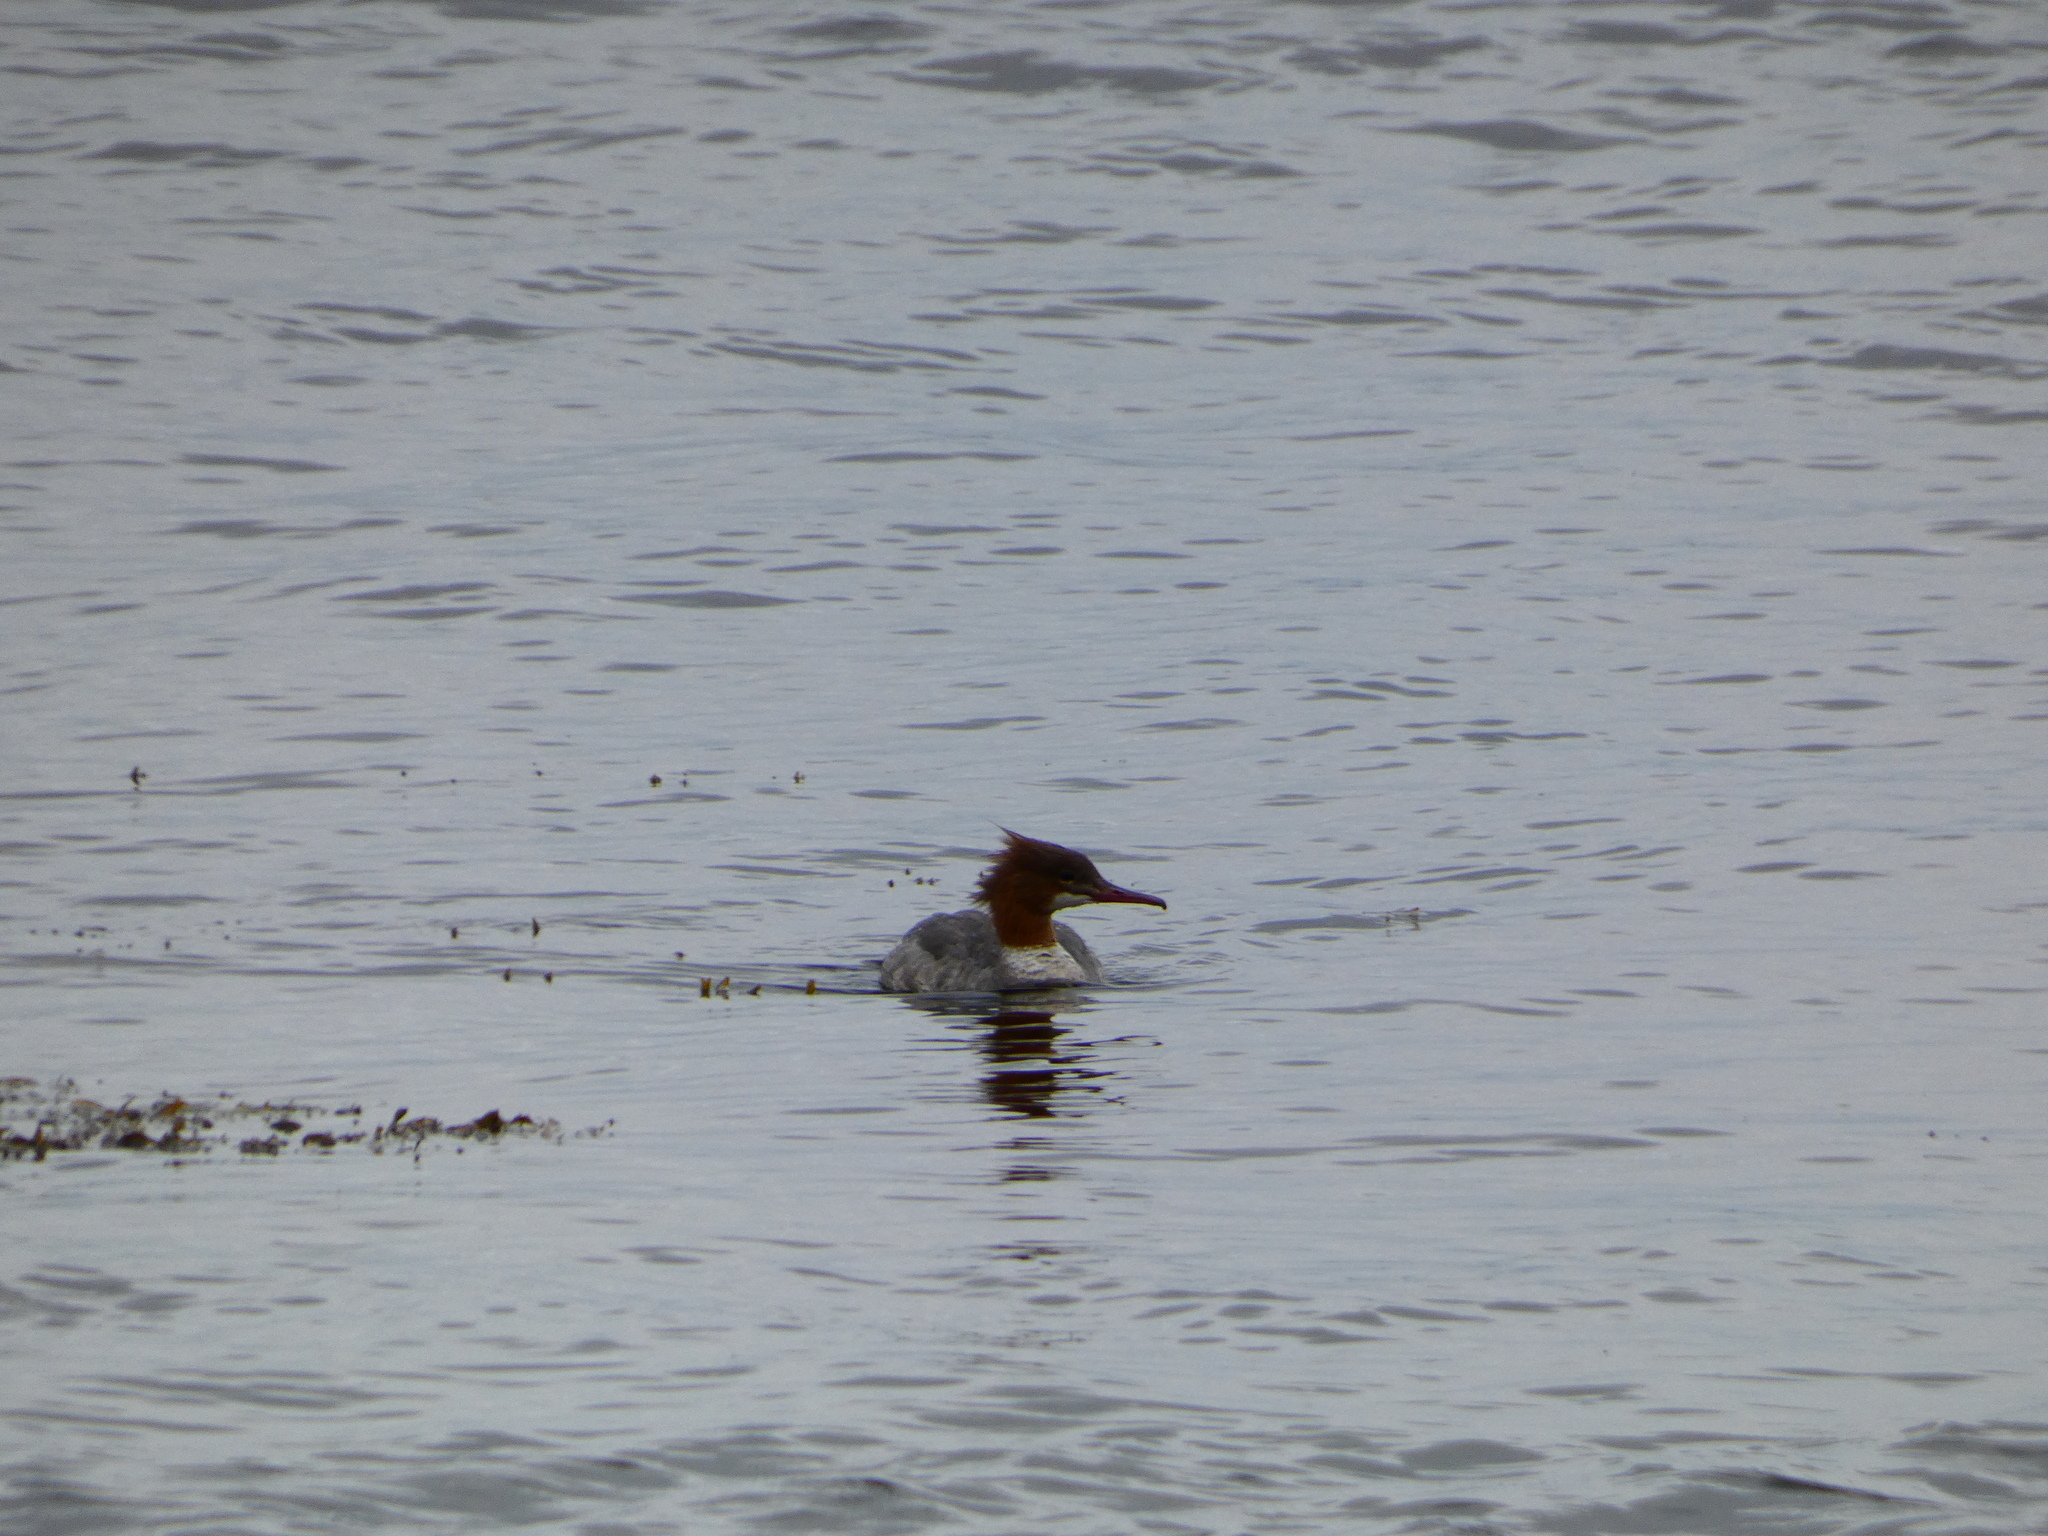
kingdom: Animalia
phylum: Chordata
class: Aves
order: Anseriformes
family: Anatidae
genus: Mergus
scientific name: Mergus merganser
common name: Common merganser
